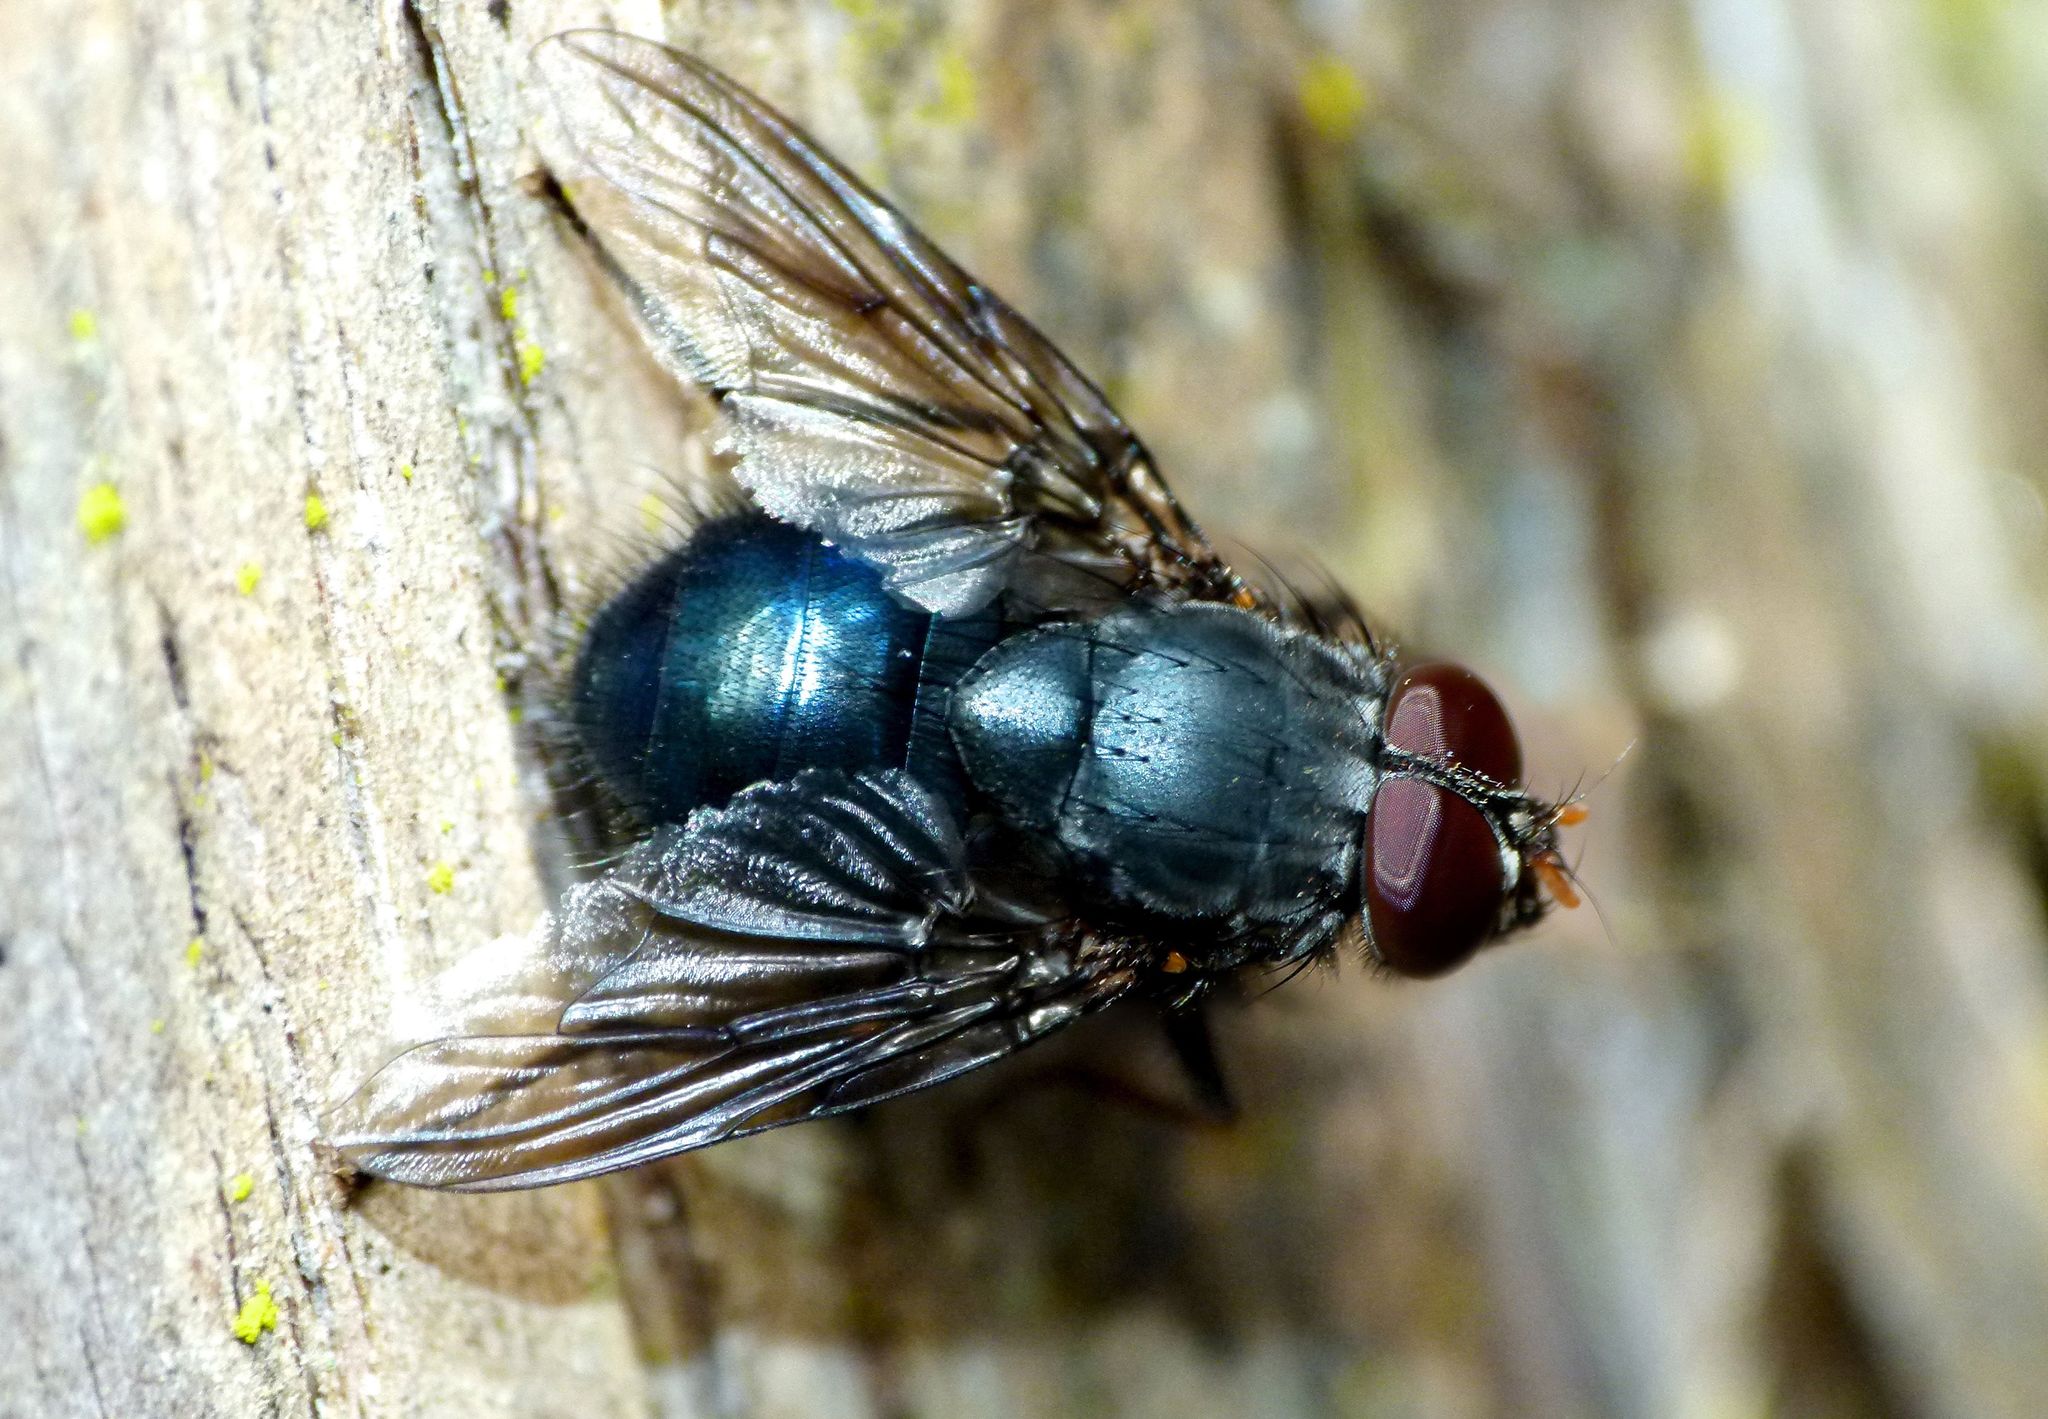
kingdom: Animalia
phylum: Arthropoda
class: Insecta
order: Diptera
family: Muscidae
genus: Calliphoroides
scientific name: Calliphoroides antennatis
